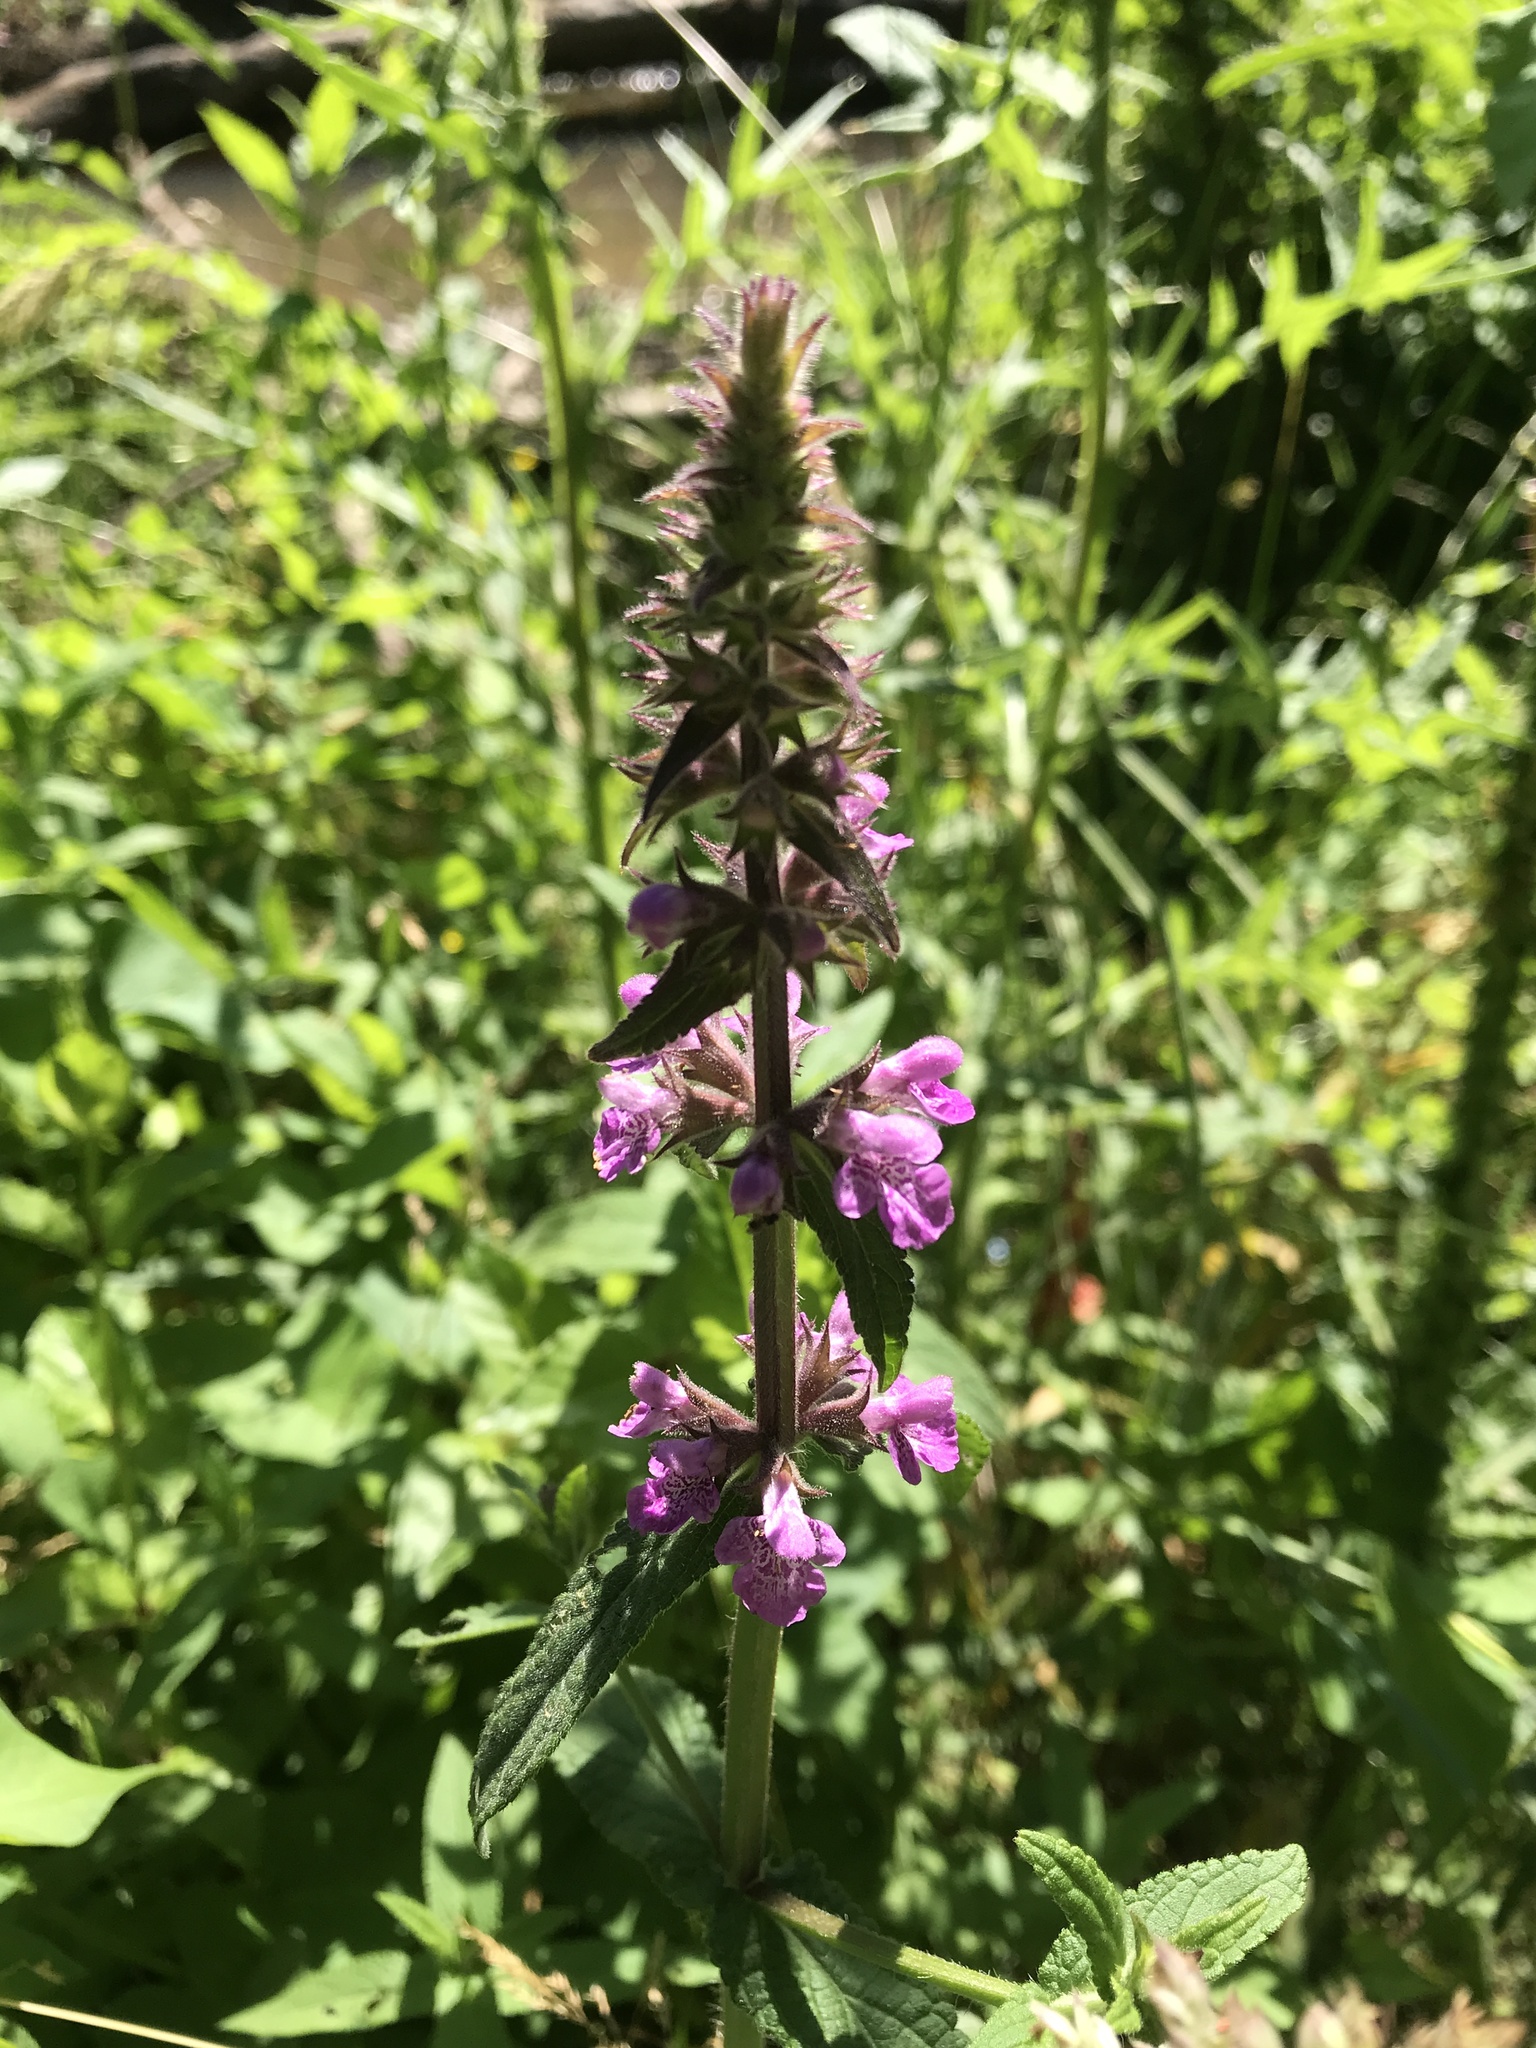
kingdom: Plantae
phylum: Tracheophyta
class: Magnoliopsida
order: Lamiales
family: Lamiaceae
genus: Stachys
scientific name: Stachys palustris
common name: Marsh woundwort
